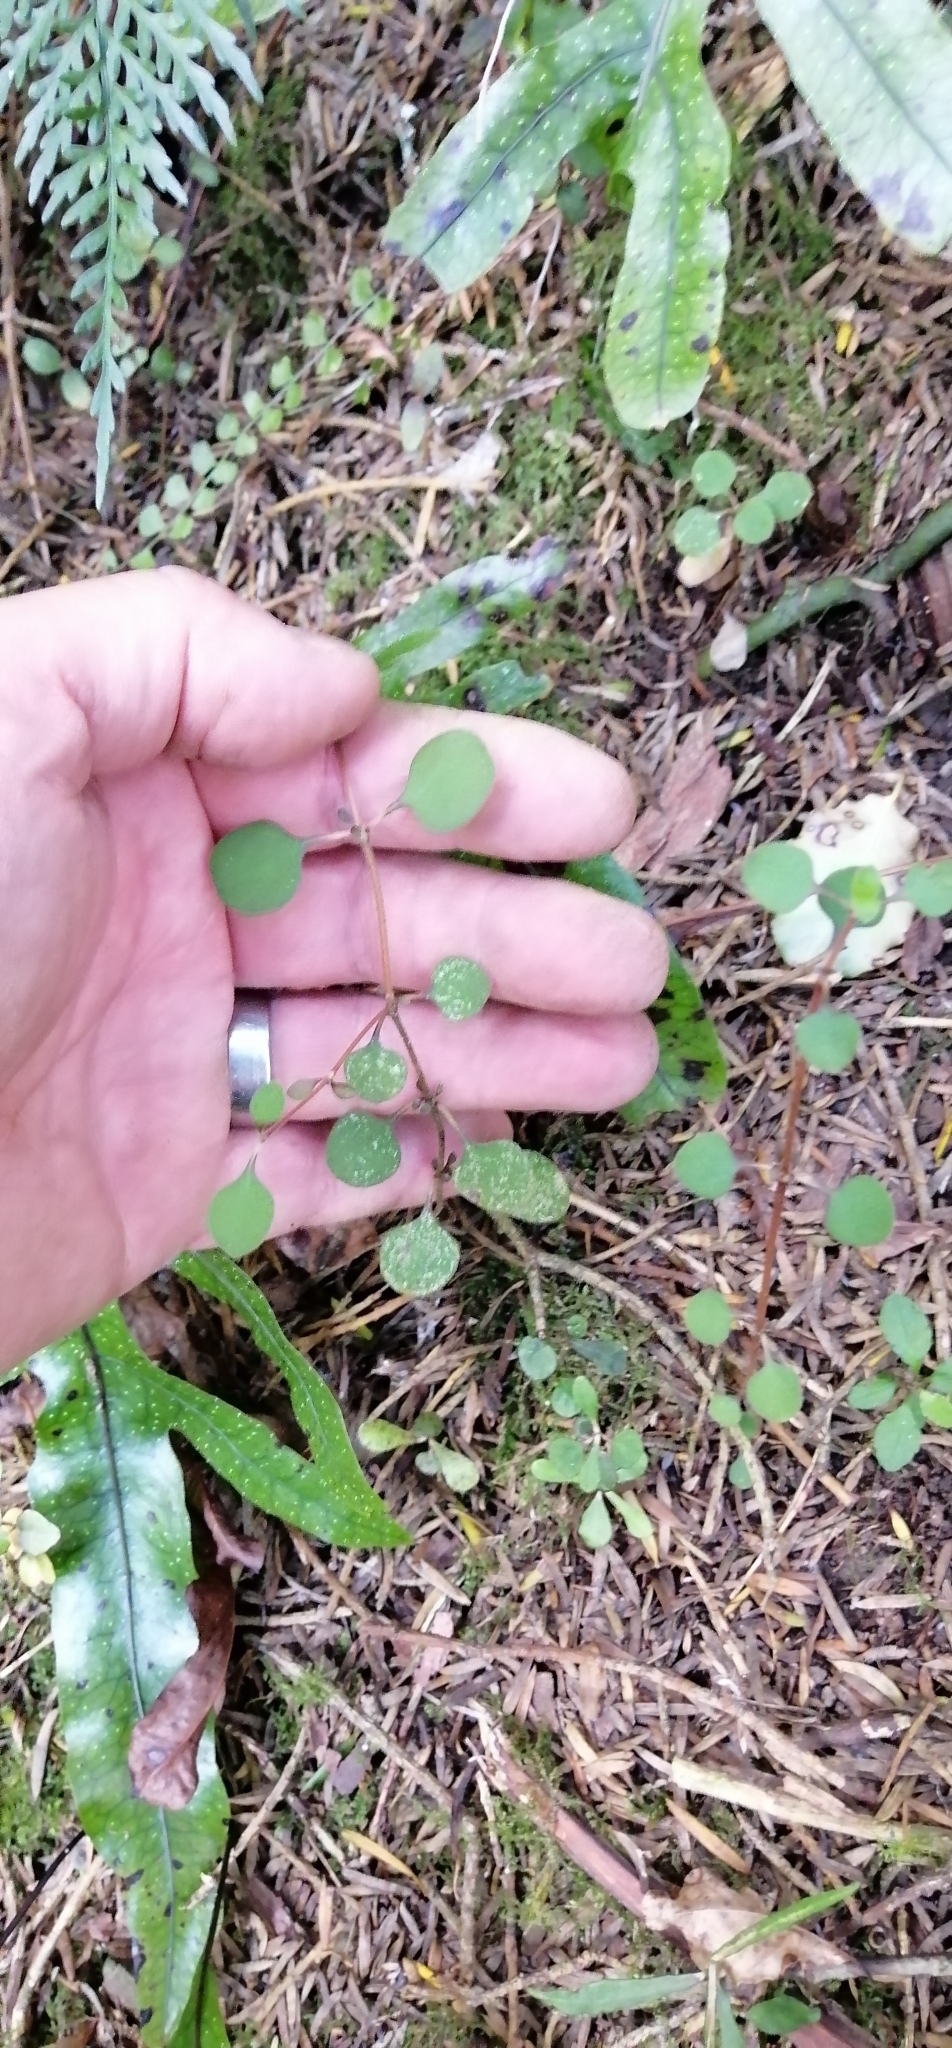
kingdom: Plantae
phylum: Tracheophyta
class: Magnoliopsida
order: Gentianales
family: Rubiaceae
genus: Coprosma
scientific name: Coprosma crassifolia
